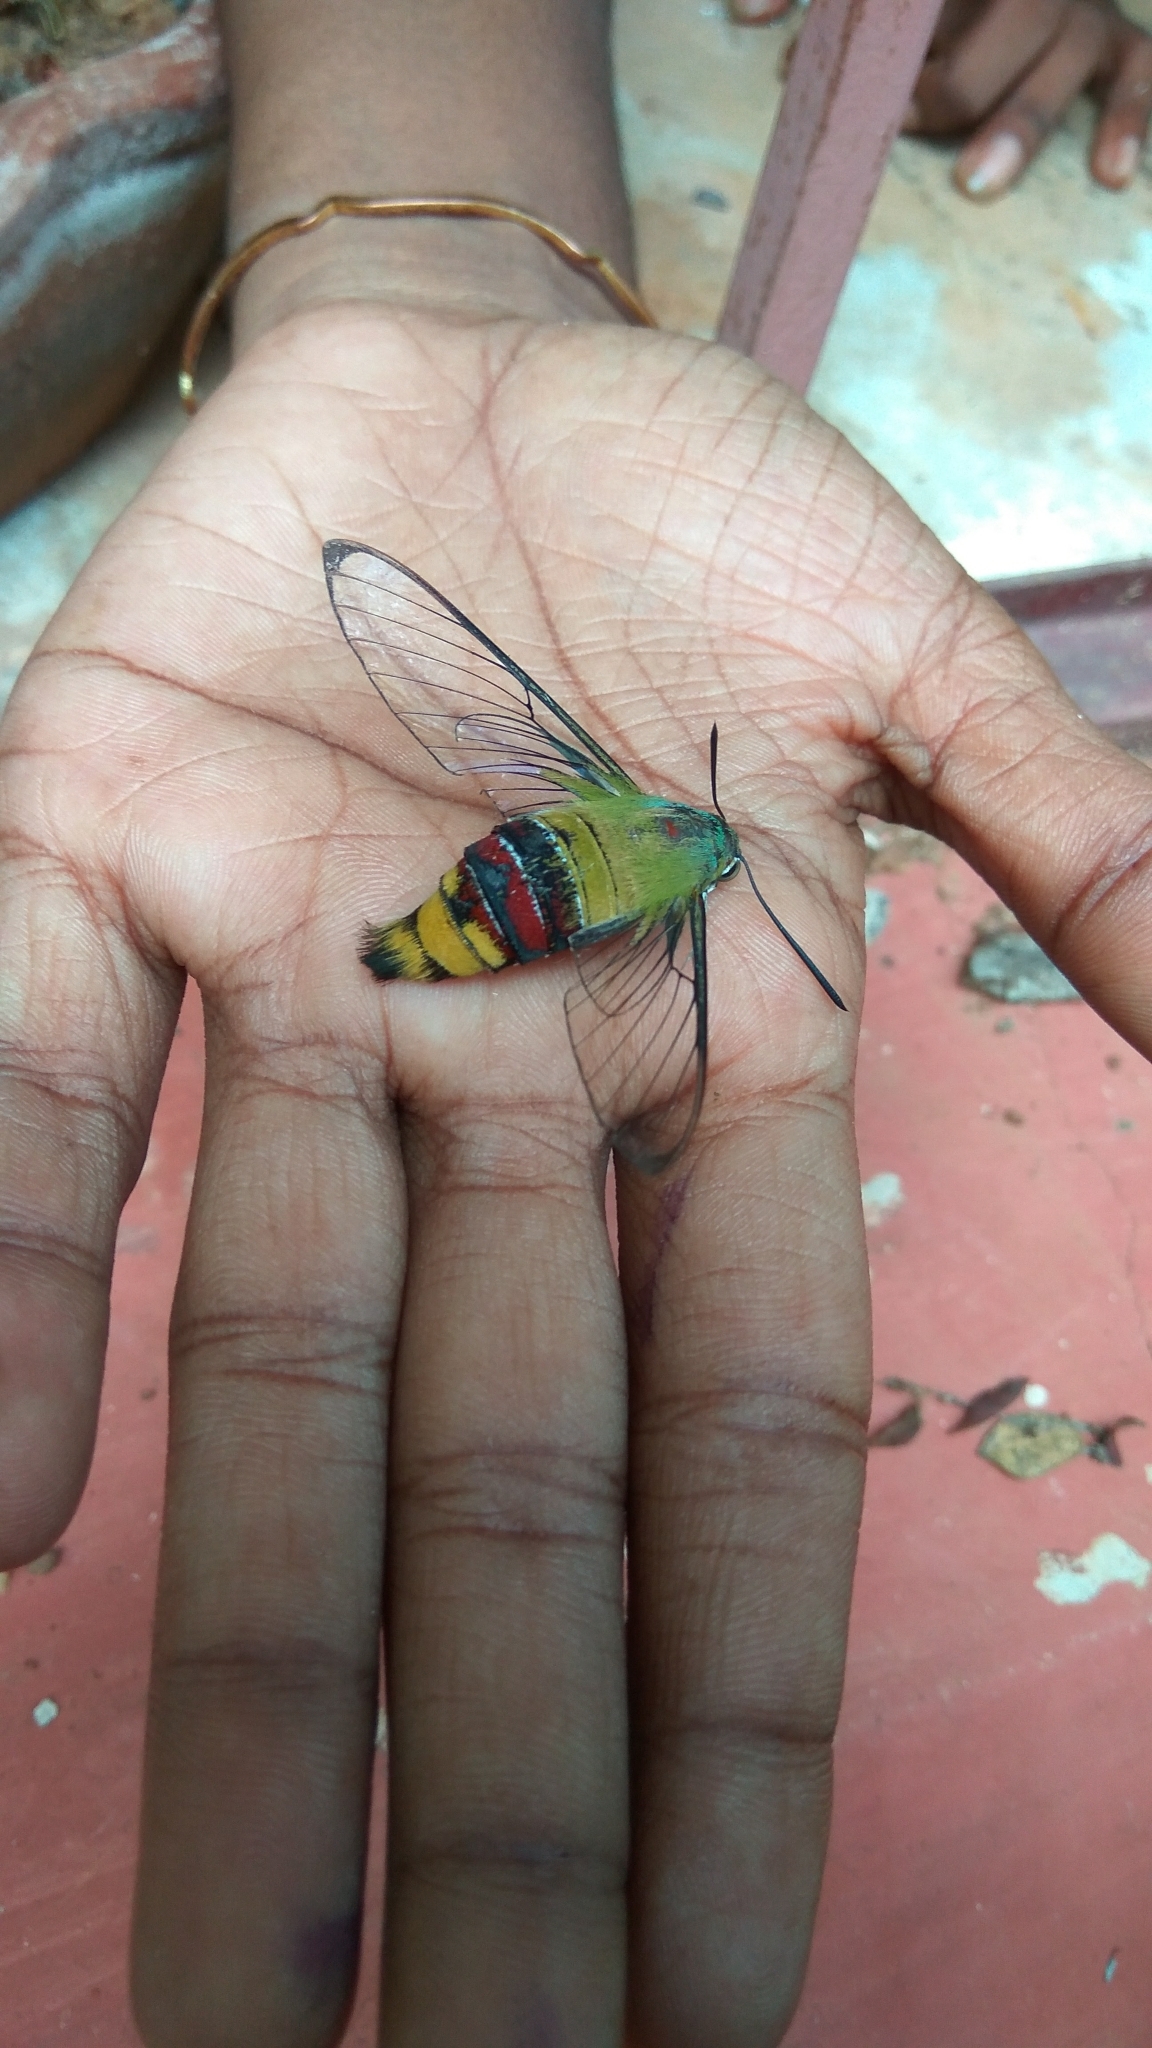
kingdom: Animalia
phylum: Arthropoda
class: Insecta
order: Lepidoptera
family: Sphingidae
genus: Cephonodes
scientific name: Cephonodes hylas
